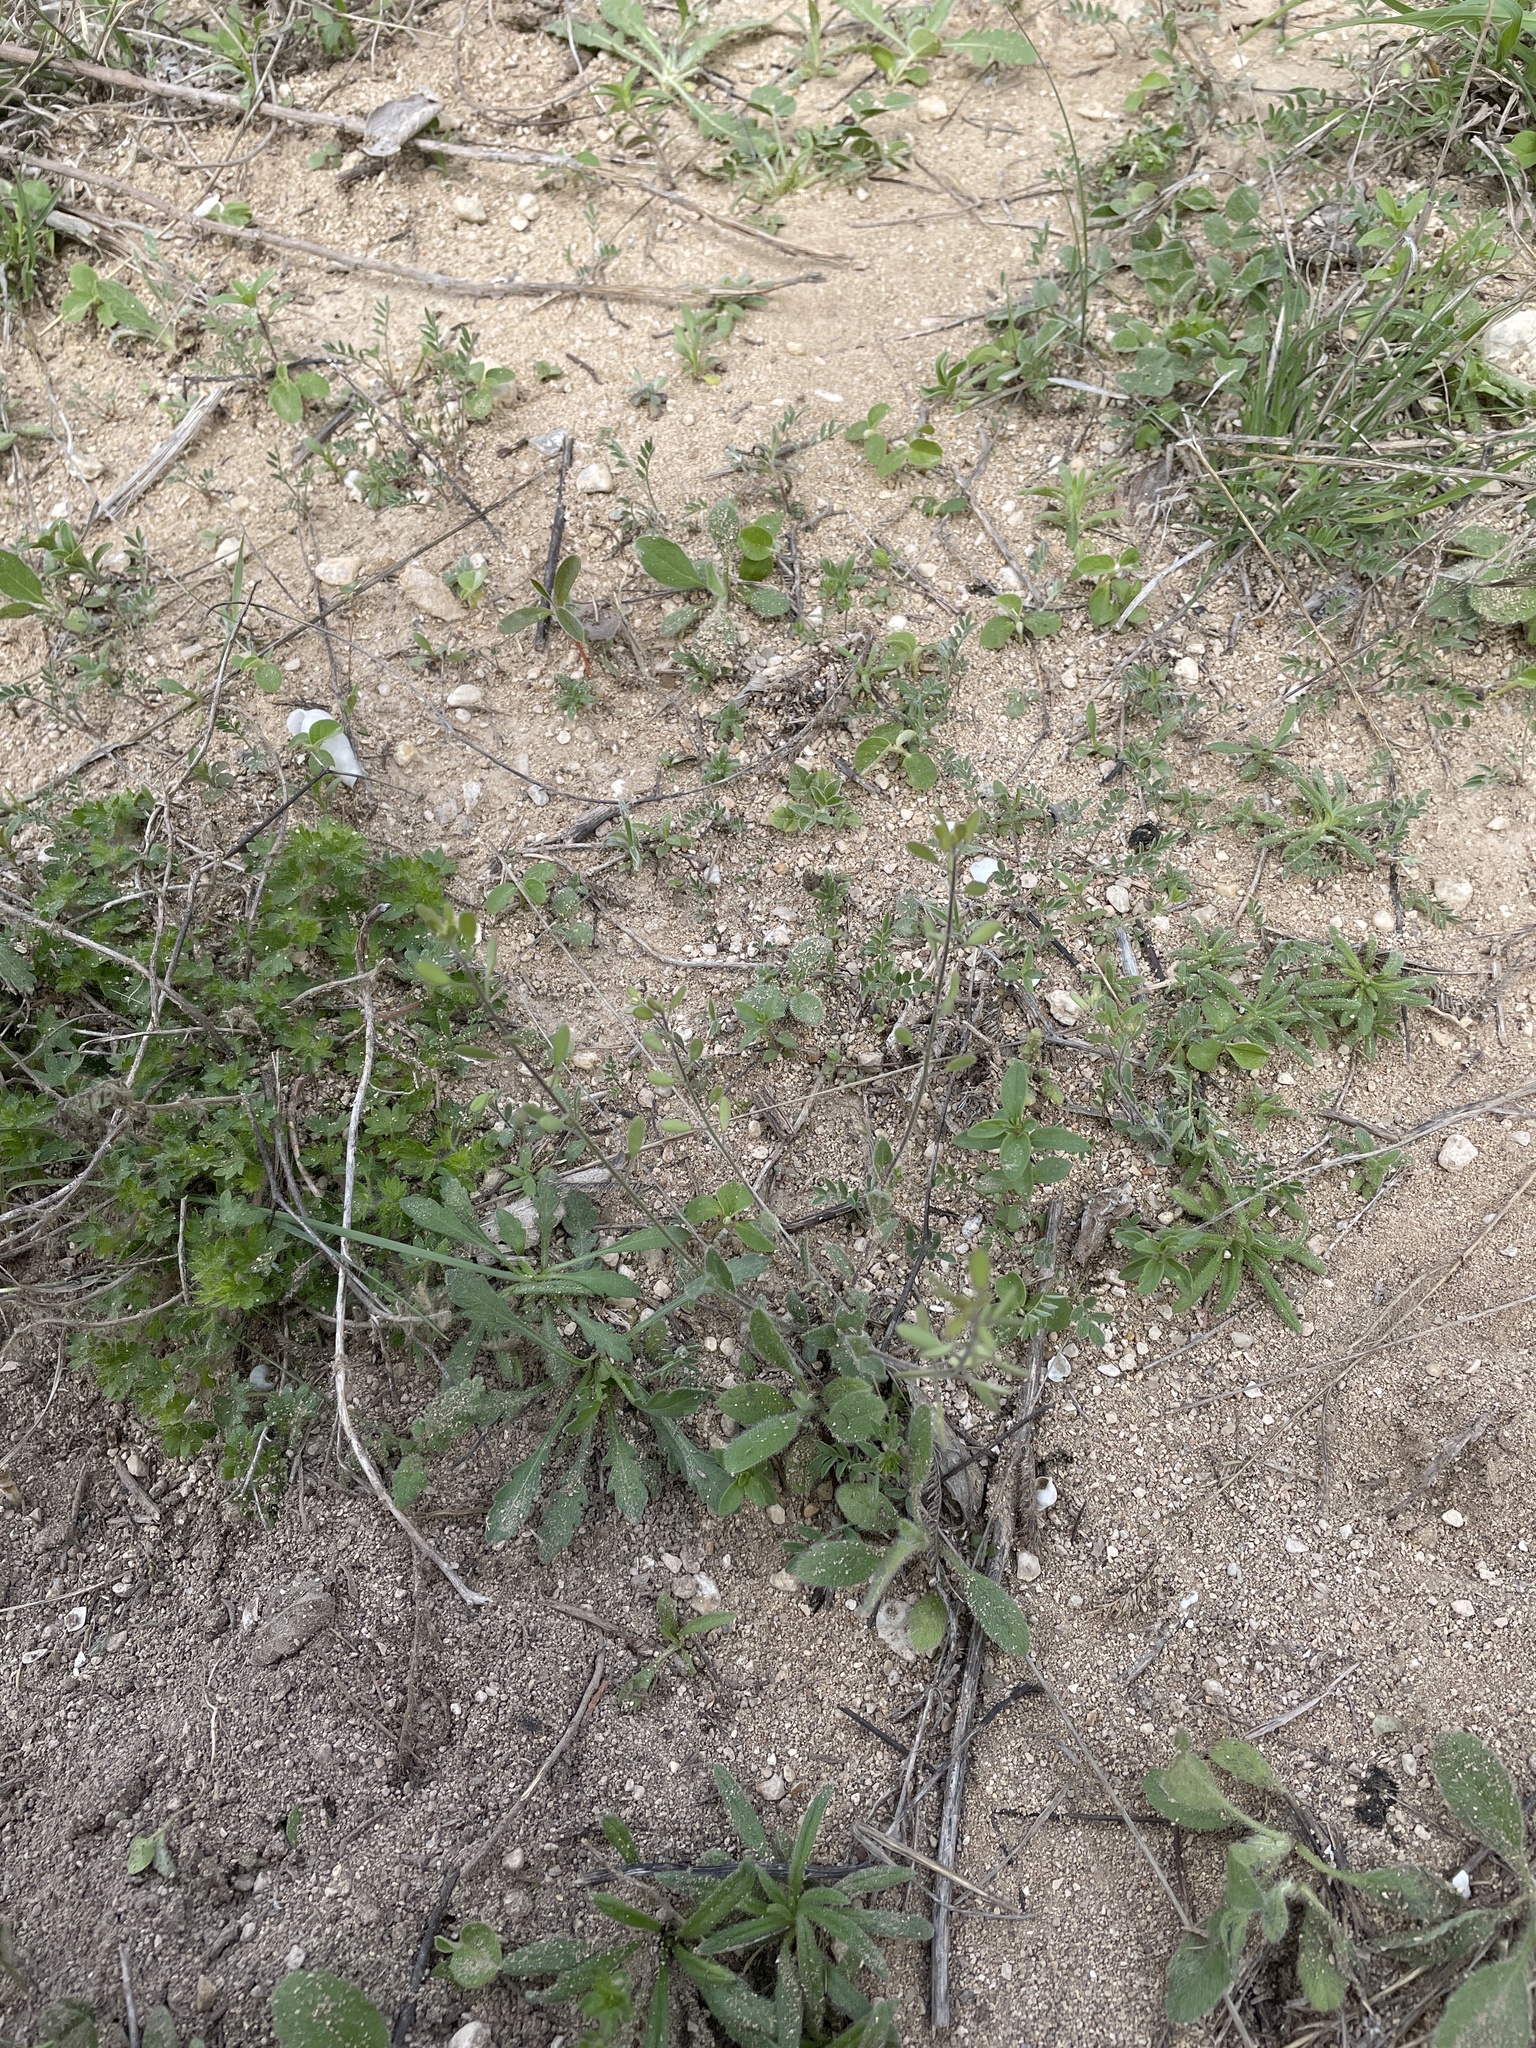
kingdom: Plantae
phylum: Tracheophyta
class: Magnoliopsida
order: Brassicales
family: Brassicaceae
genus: Tomostima
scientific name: Tomostima platycarpa
